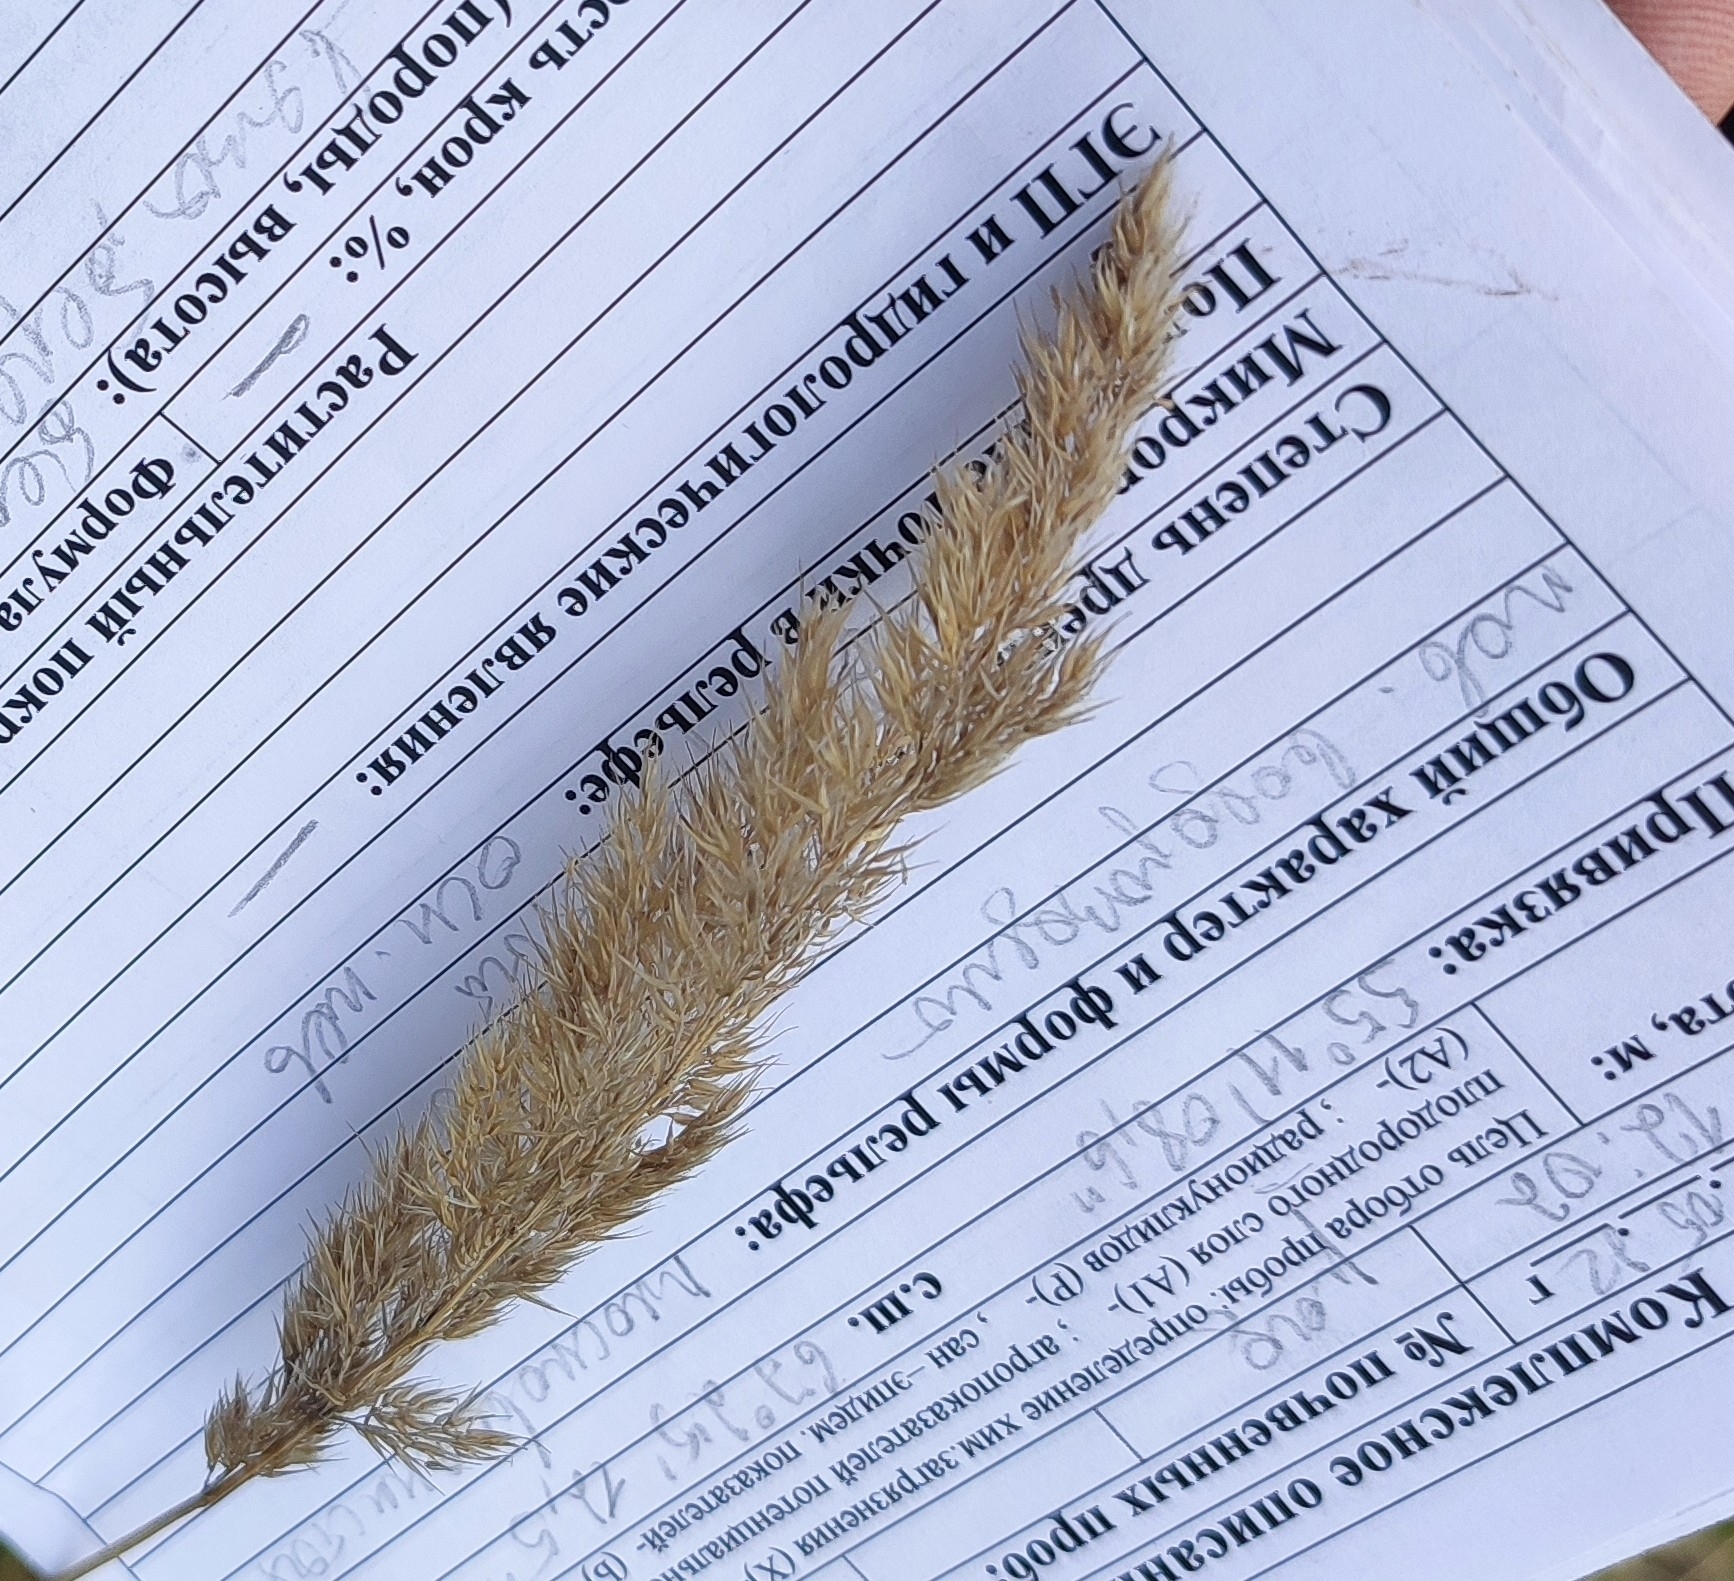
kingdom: Plantae
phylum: Tracheophyta
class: Liliopsida
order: Poales
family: Poaceae
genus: Calamagrostis
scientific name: Calamagrostis epigejos
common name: Wood small-reed
